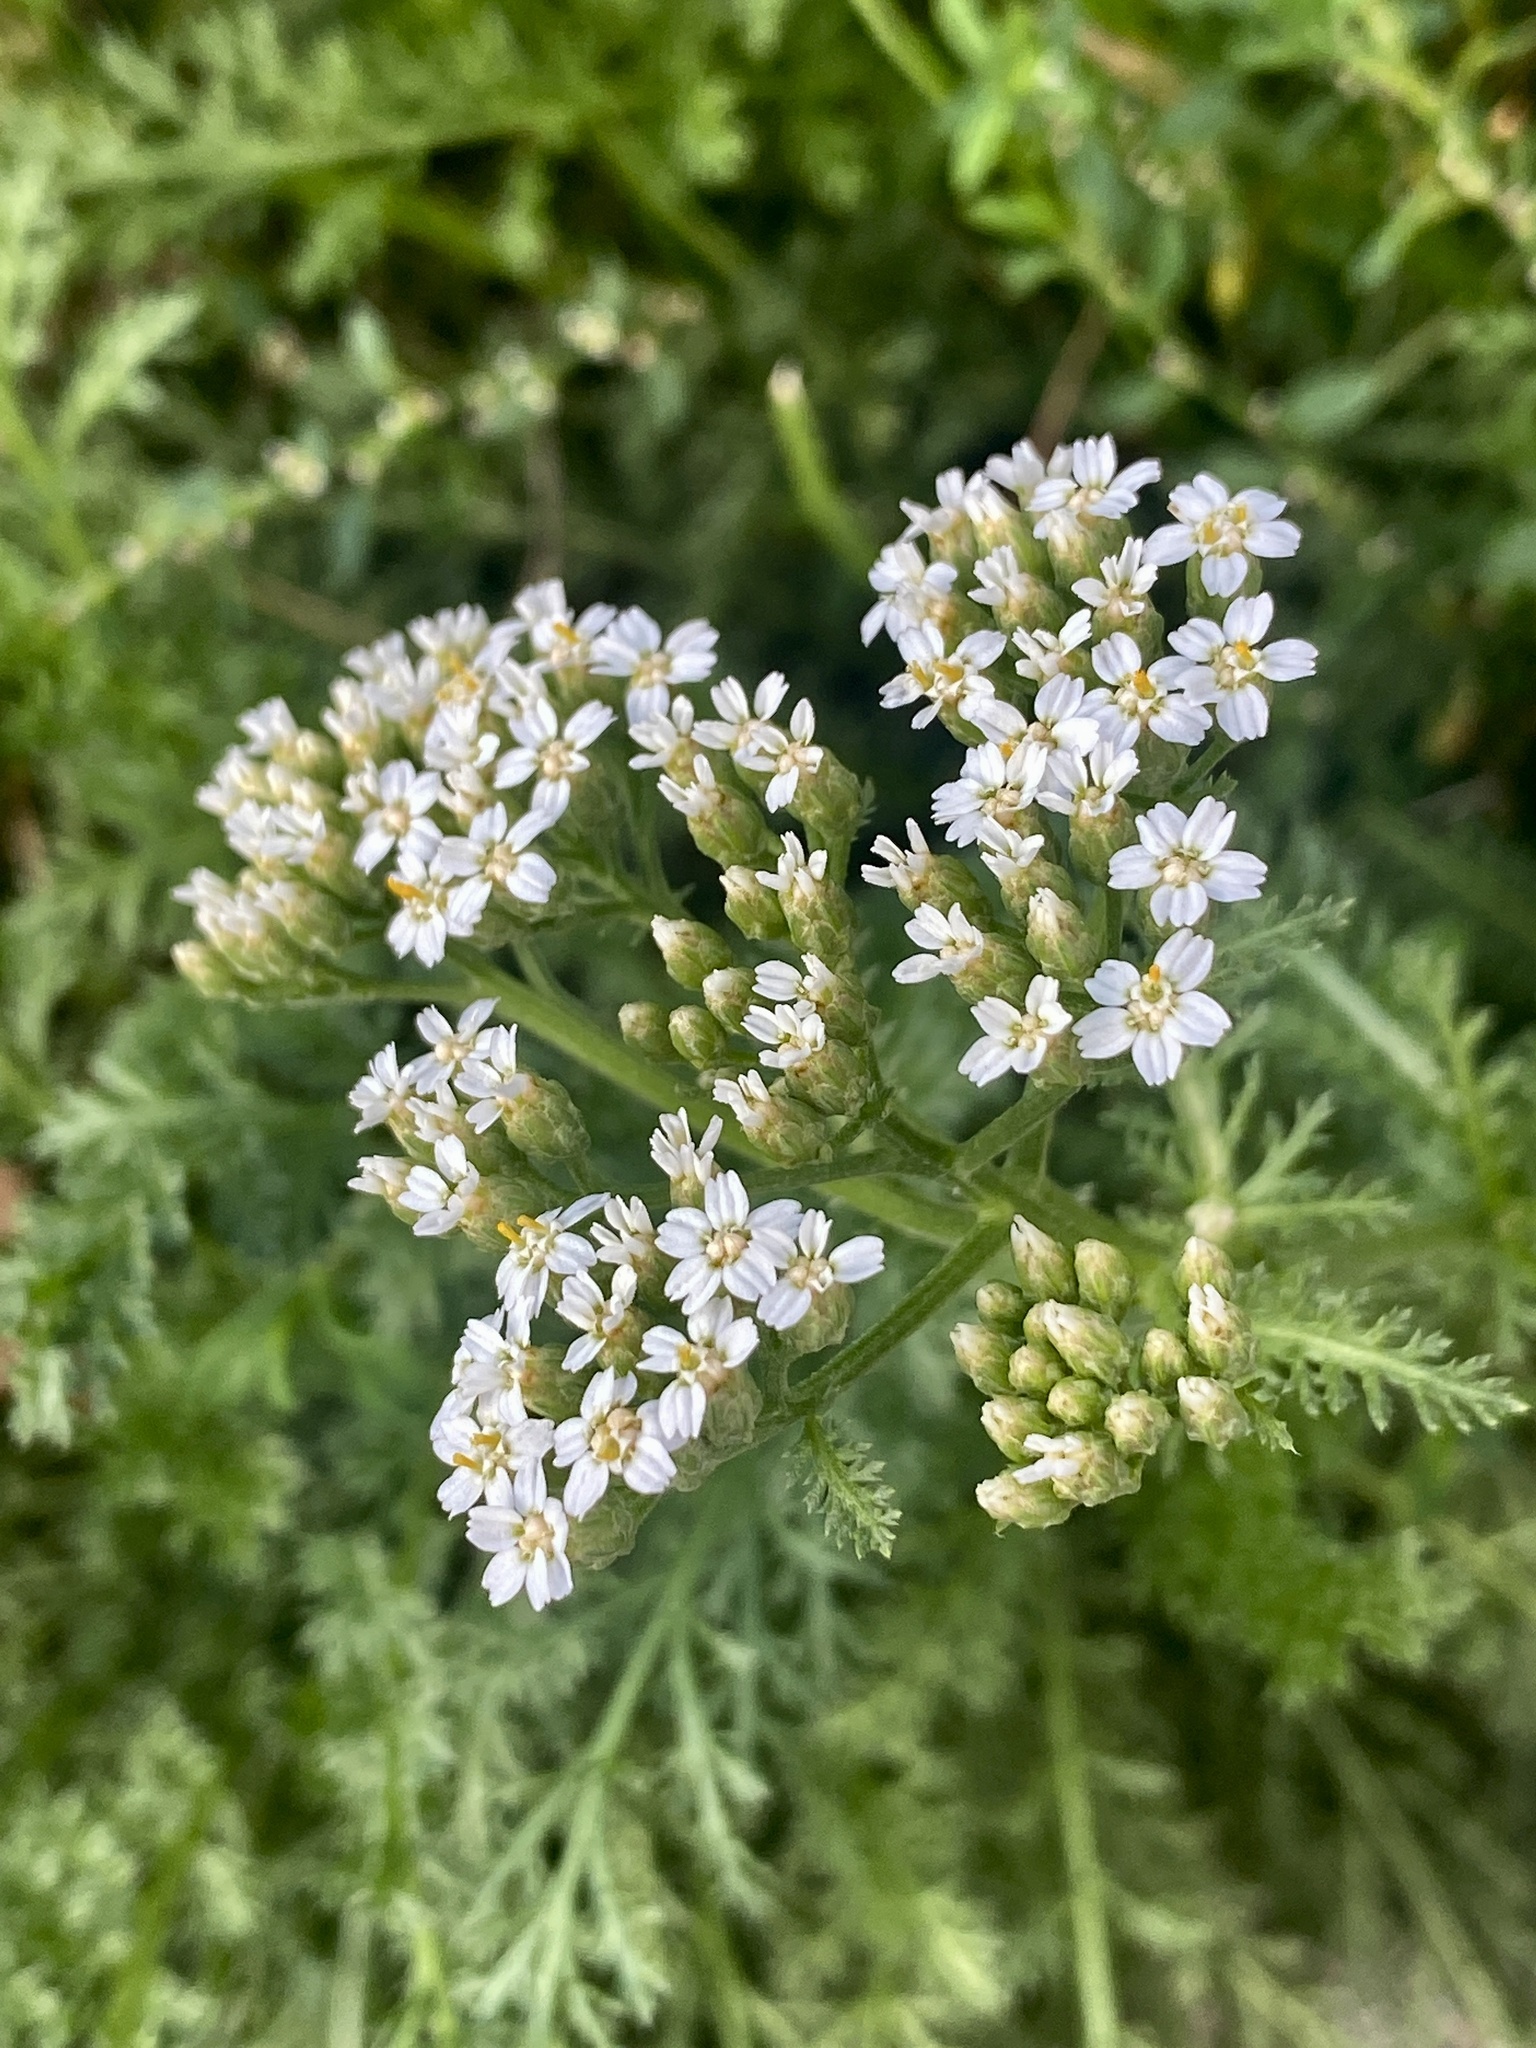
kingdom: Plantae
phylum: Tracheophyta
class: Magnoliopsida
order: Asterales
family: Asteraceae
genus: Achillea
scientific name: Achillea millefolium
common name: Yarrow
